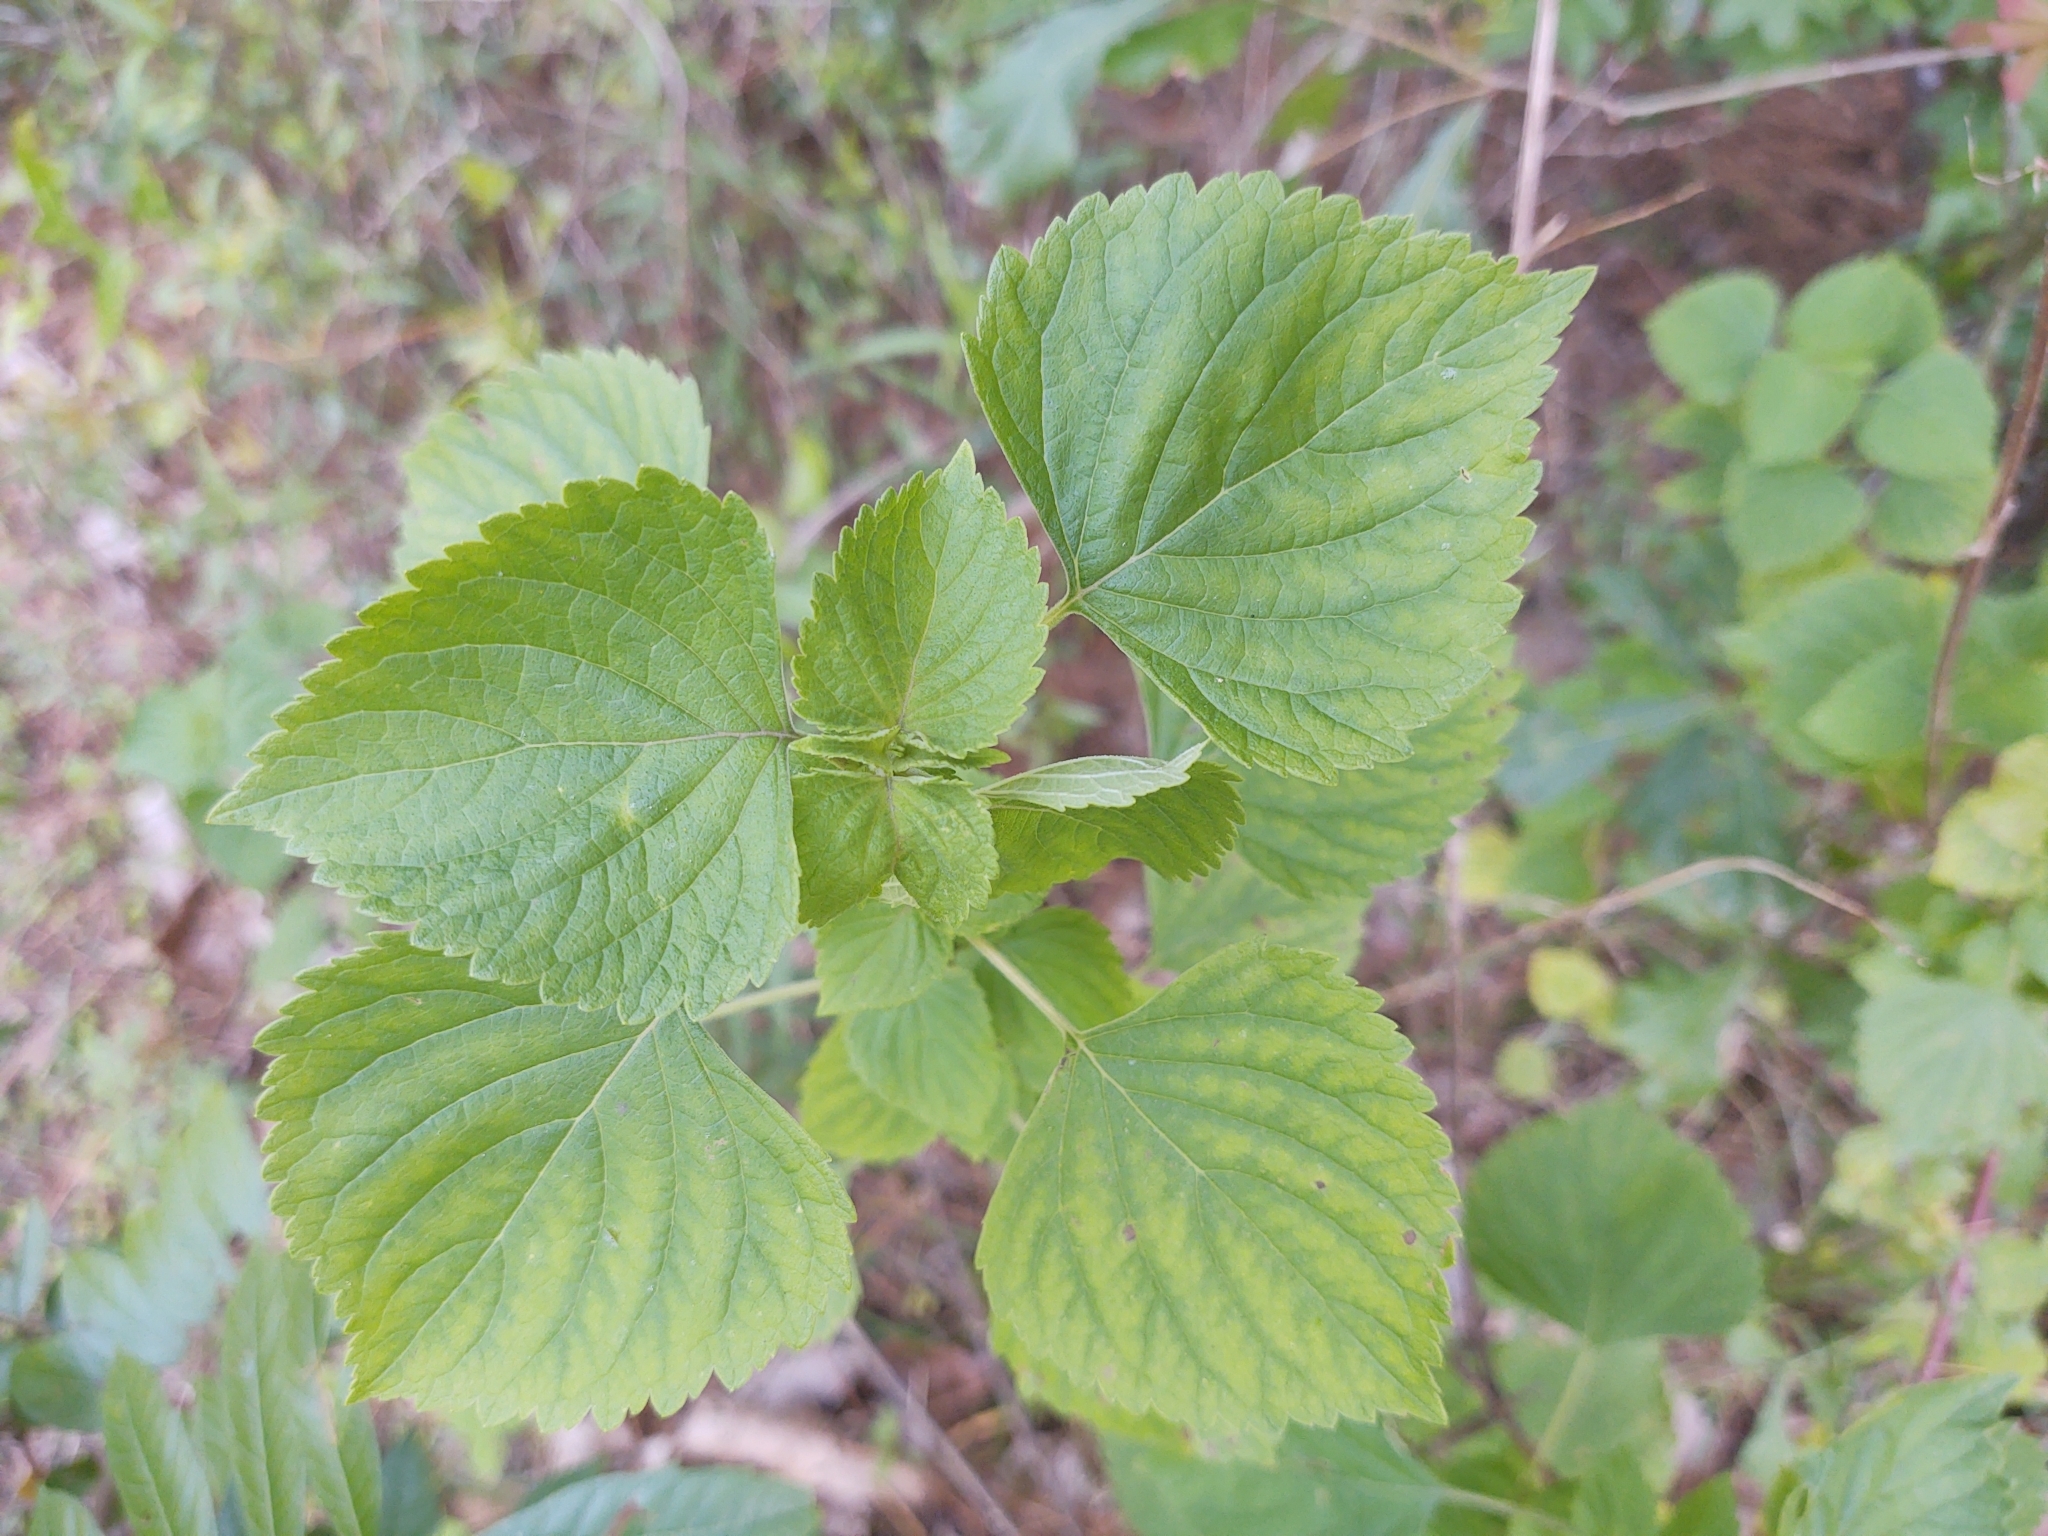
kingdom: Plantae
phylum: Tracheophyta
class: Magnoliopsida
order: Lamiales
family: Lamiaceae
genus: Cantinoa
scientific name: Cantinoa mutabilis
